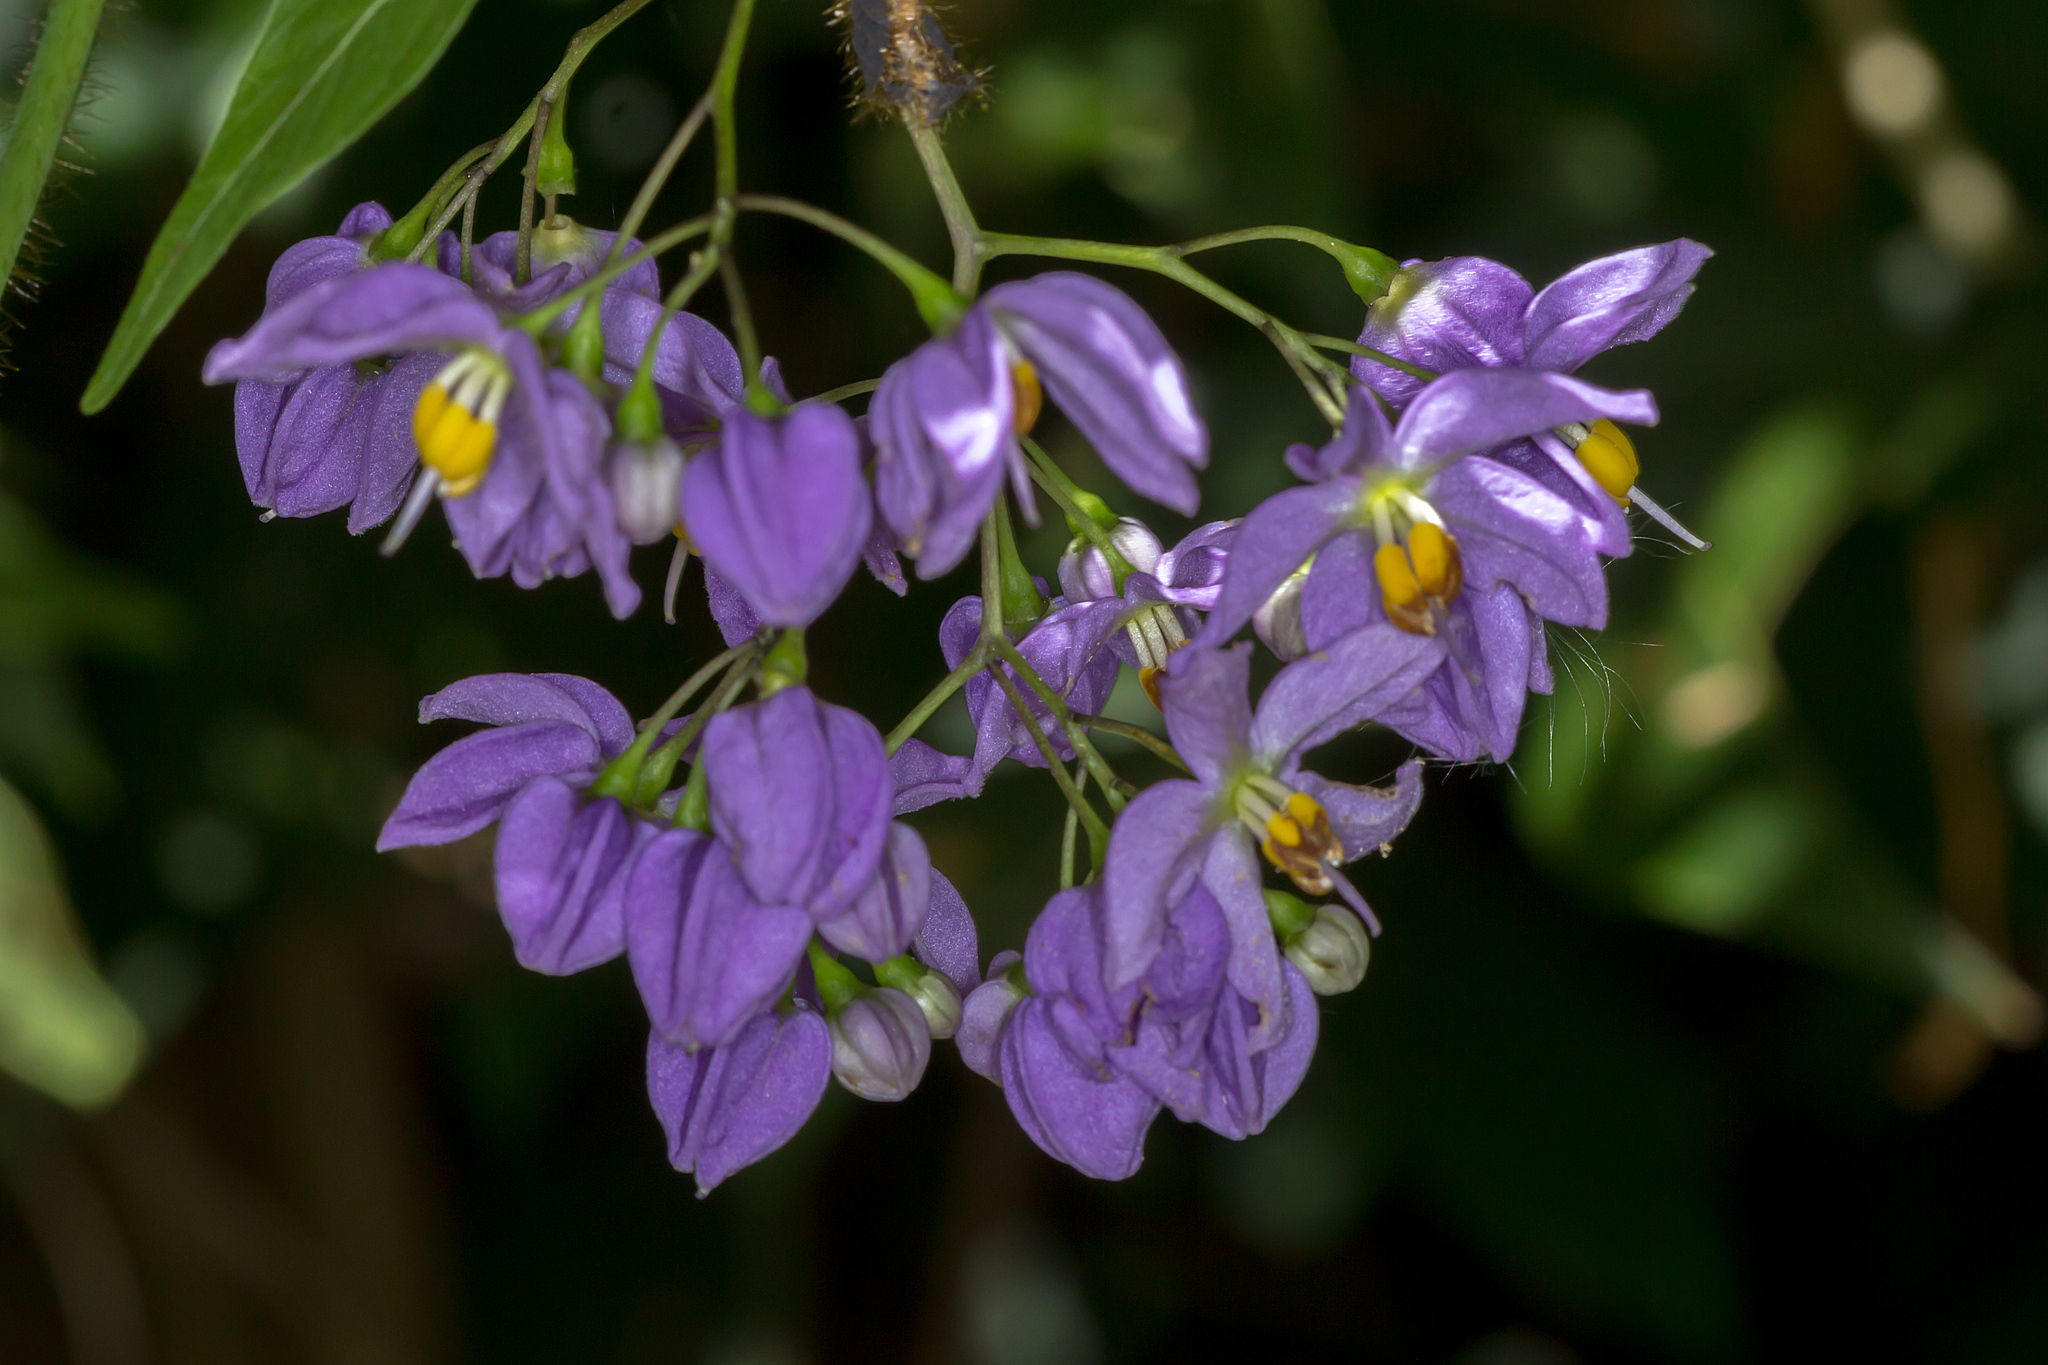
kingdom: Plantae
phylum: Tracheophyta
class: Magnoliopsida
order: Solanales
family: Solanaceae
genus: Solanum
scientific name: Solanum seaforthianum
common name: Brazilian nightshade
